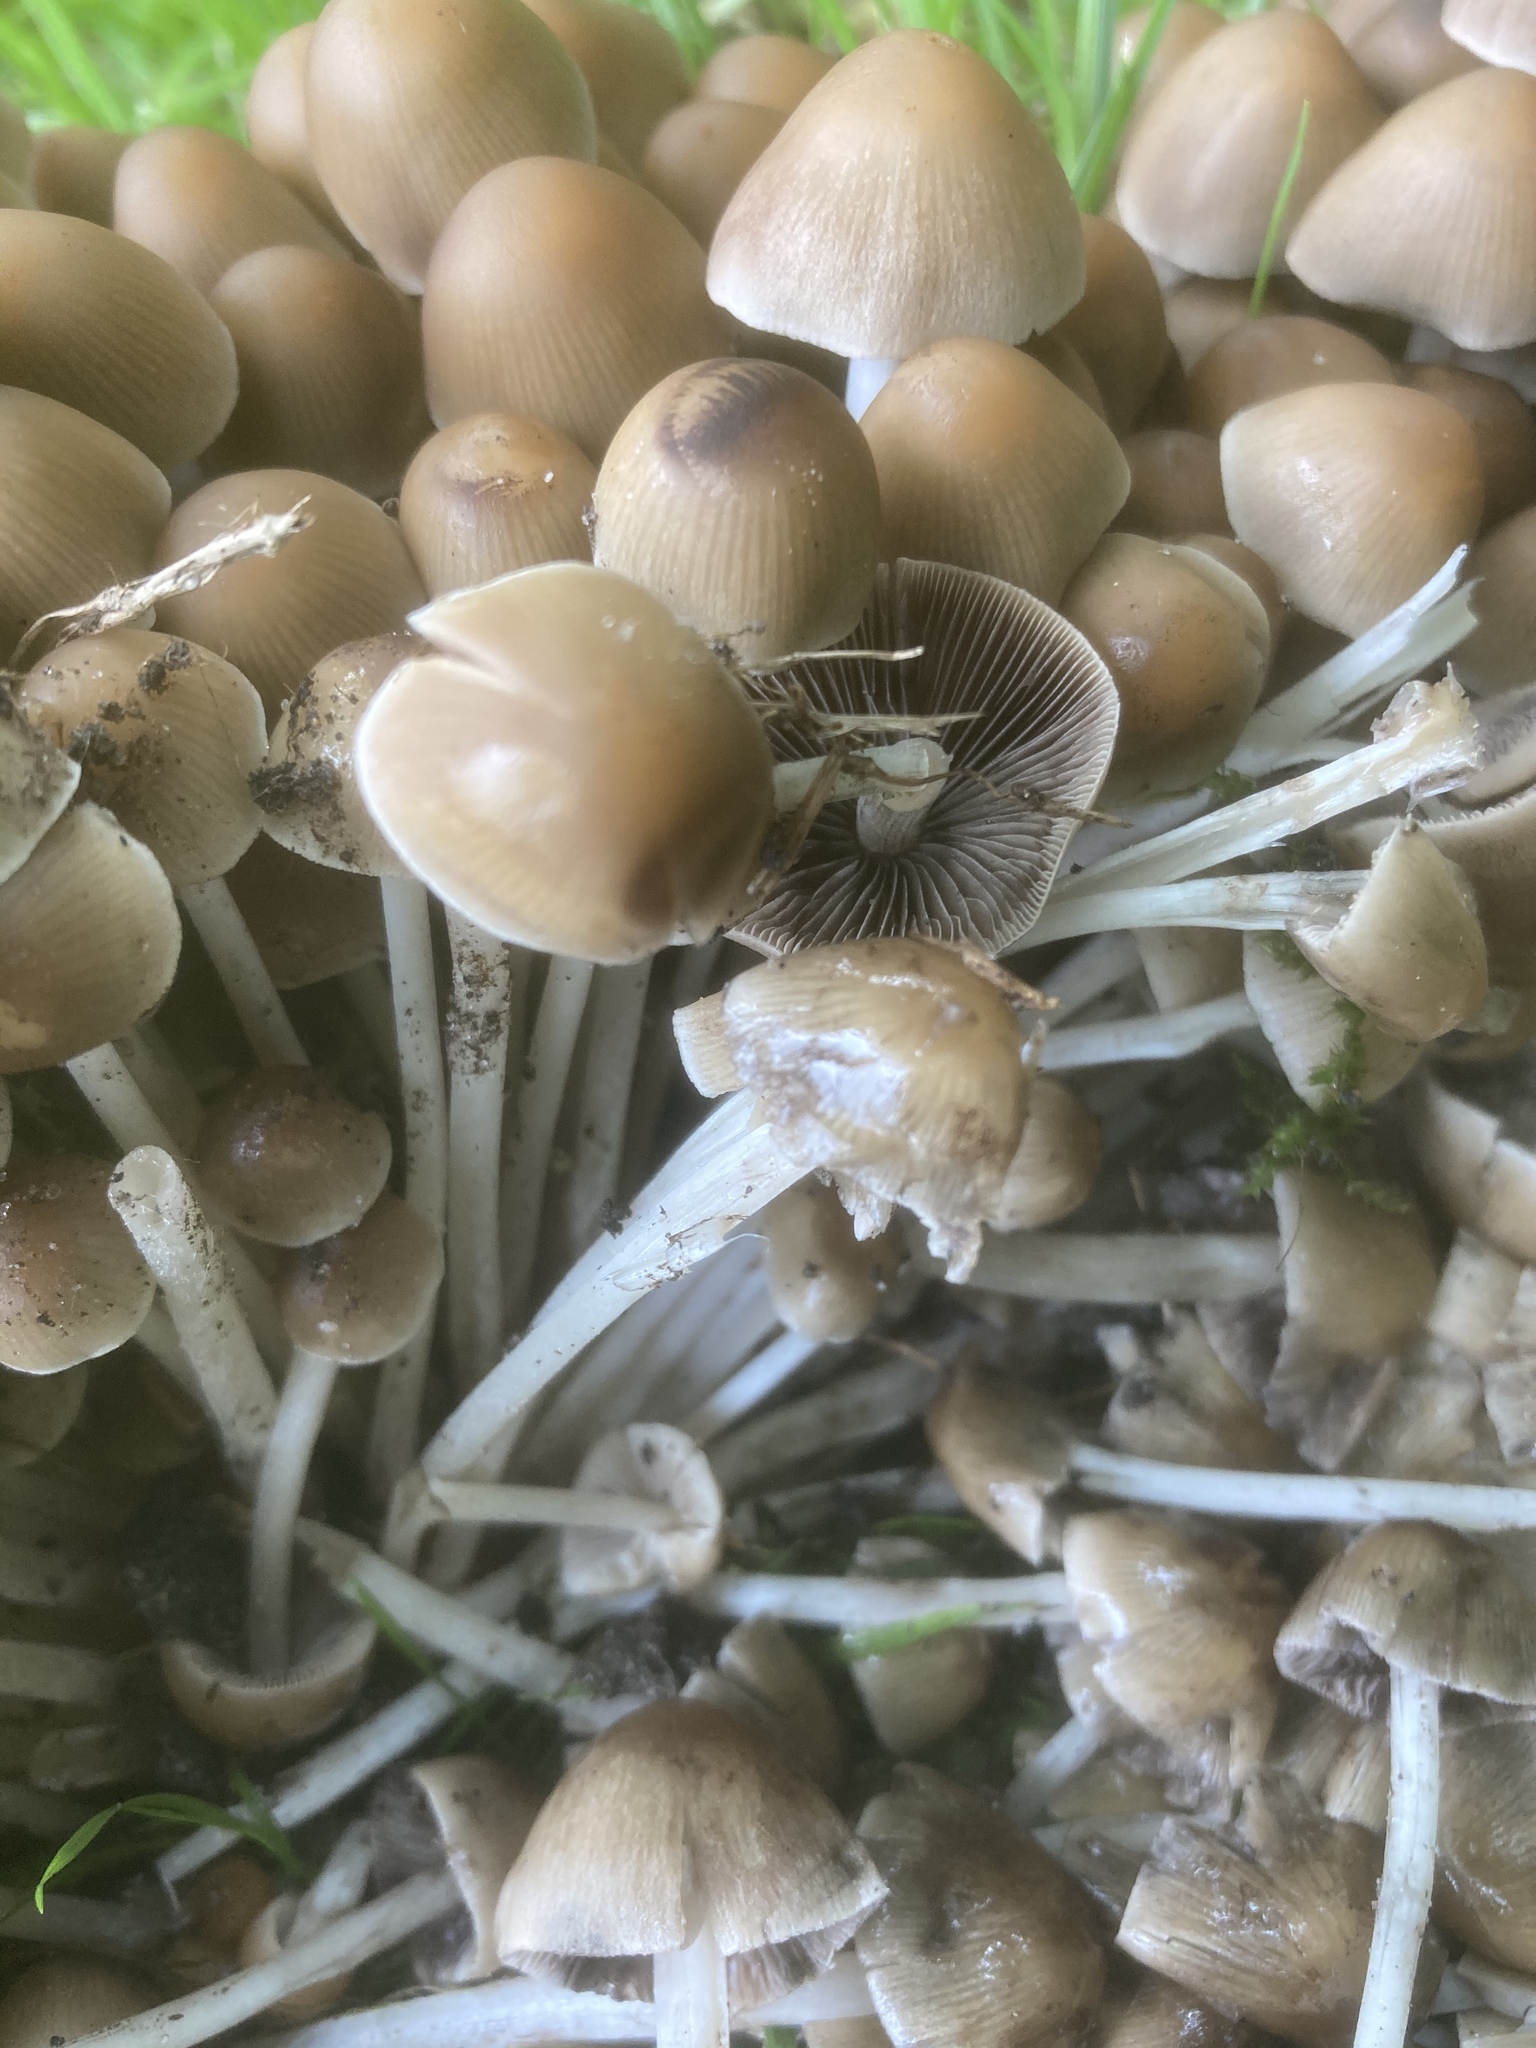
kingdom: Fungi
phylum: Basidiomycota
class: Agaricomycetes
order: Agaricales
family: Psathyrellaceae
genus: Britzelmayria
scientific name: Britzelmayria multipedata
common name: Clustered brittlestem
